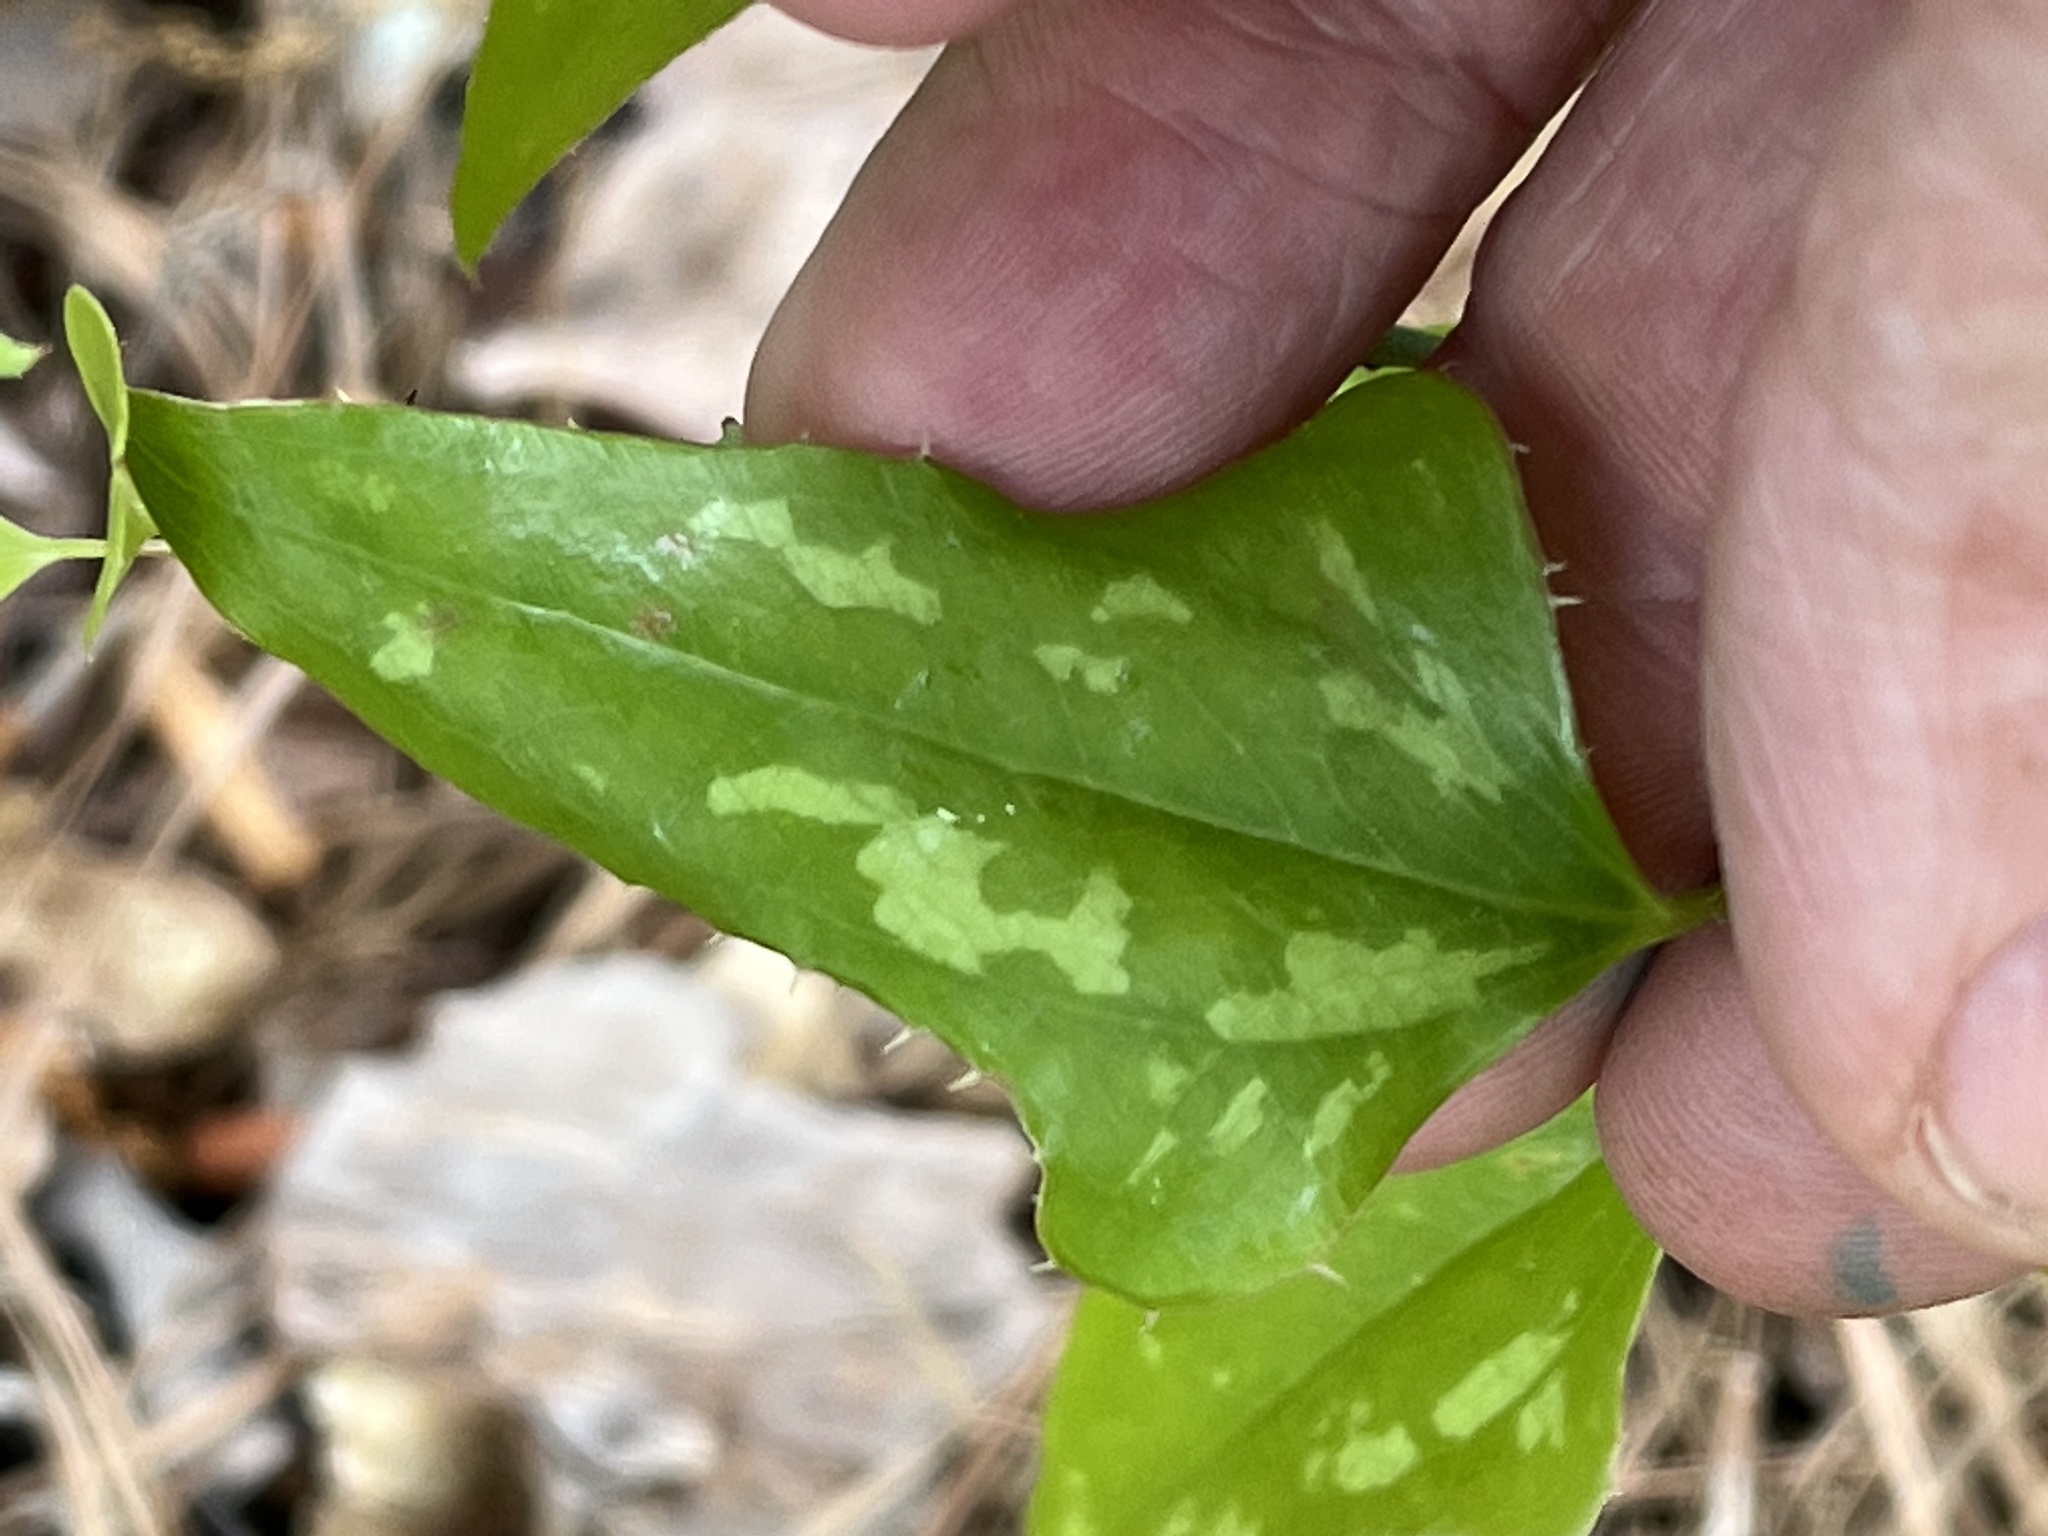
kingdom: Plantae
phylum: Tracheophyta
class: Liliopsida
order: Liliales
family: Smilacaceae
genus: Smilax
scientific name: Smilax bona-nox
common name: Catbrier
